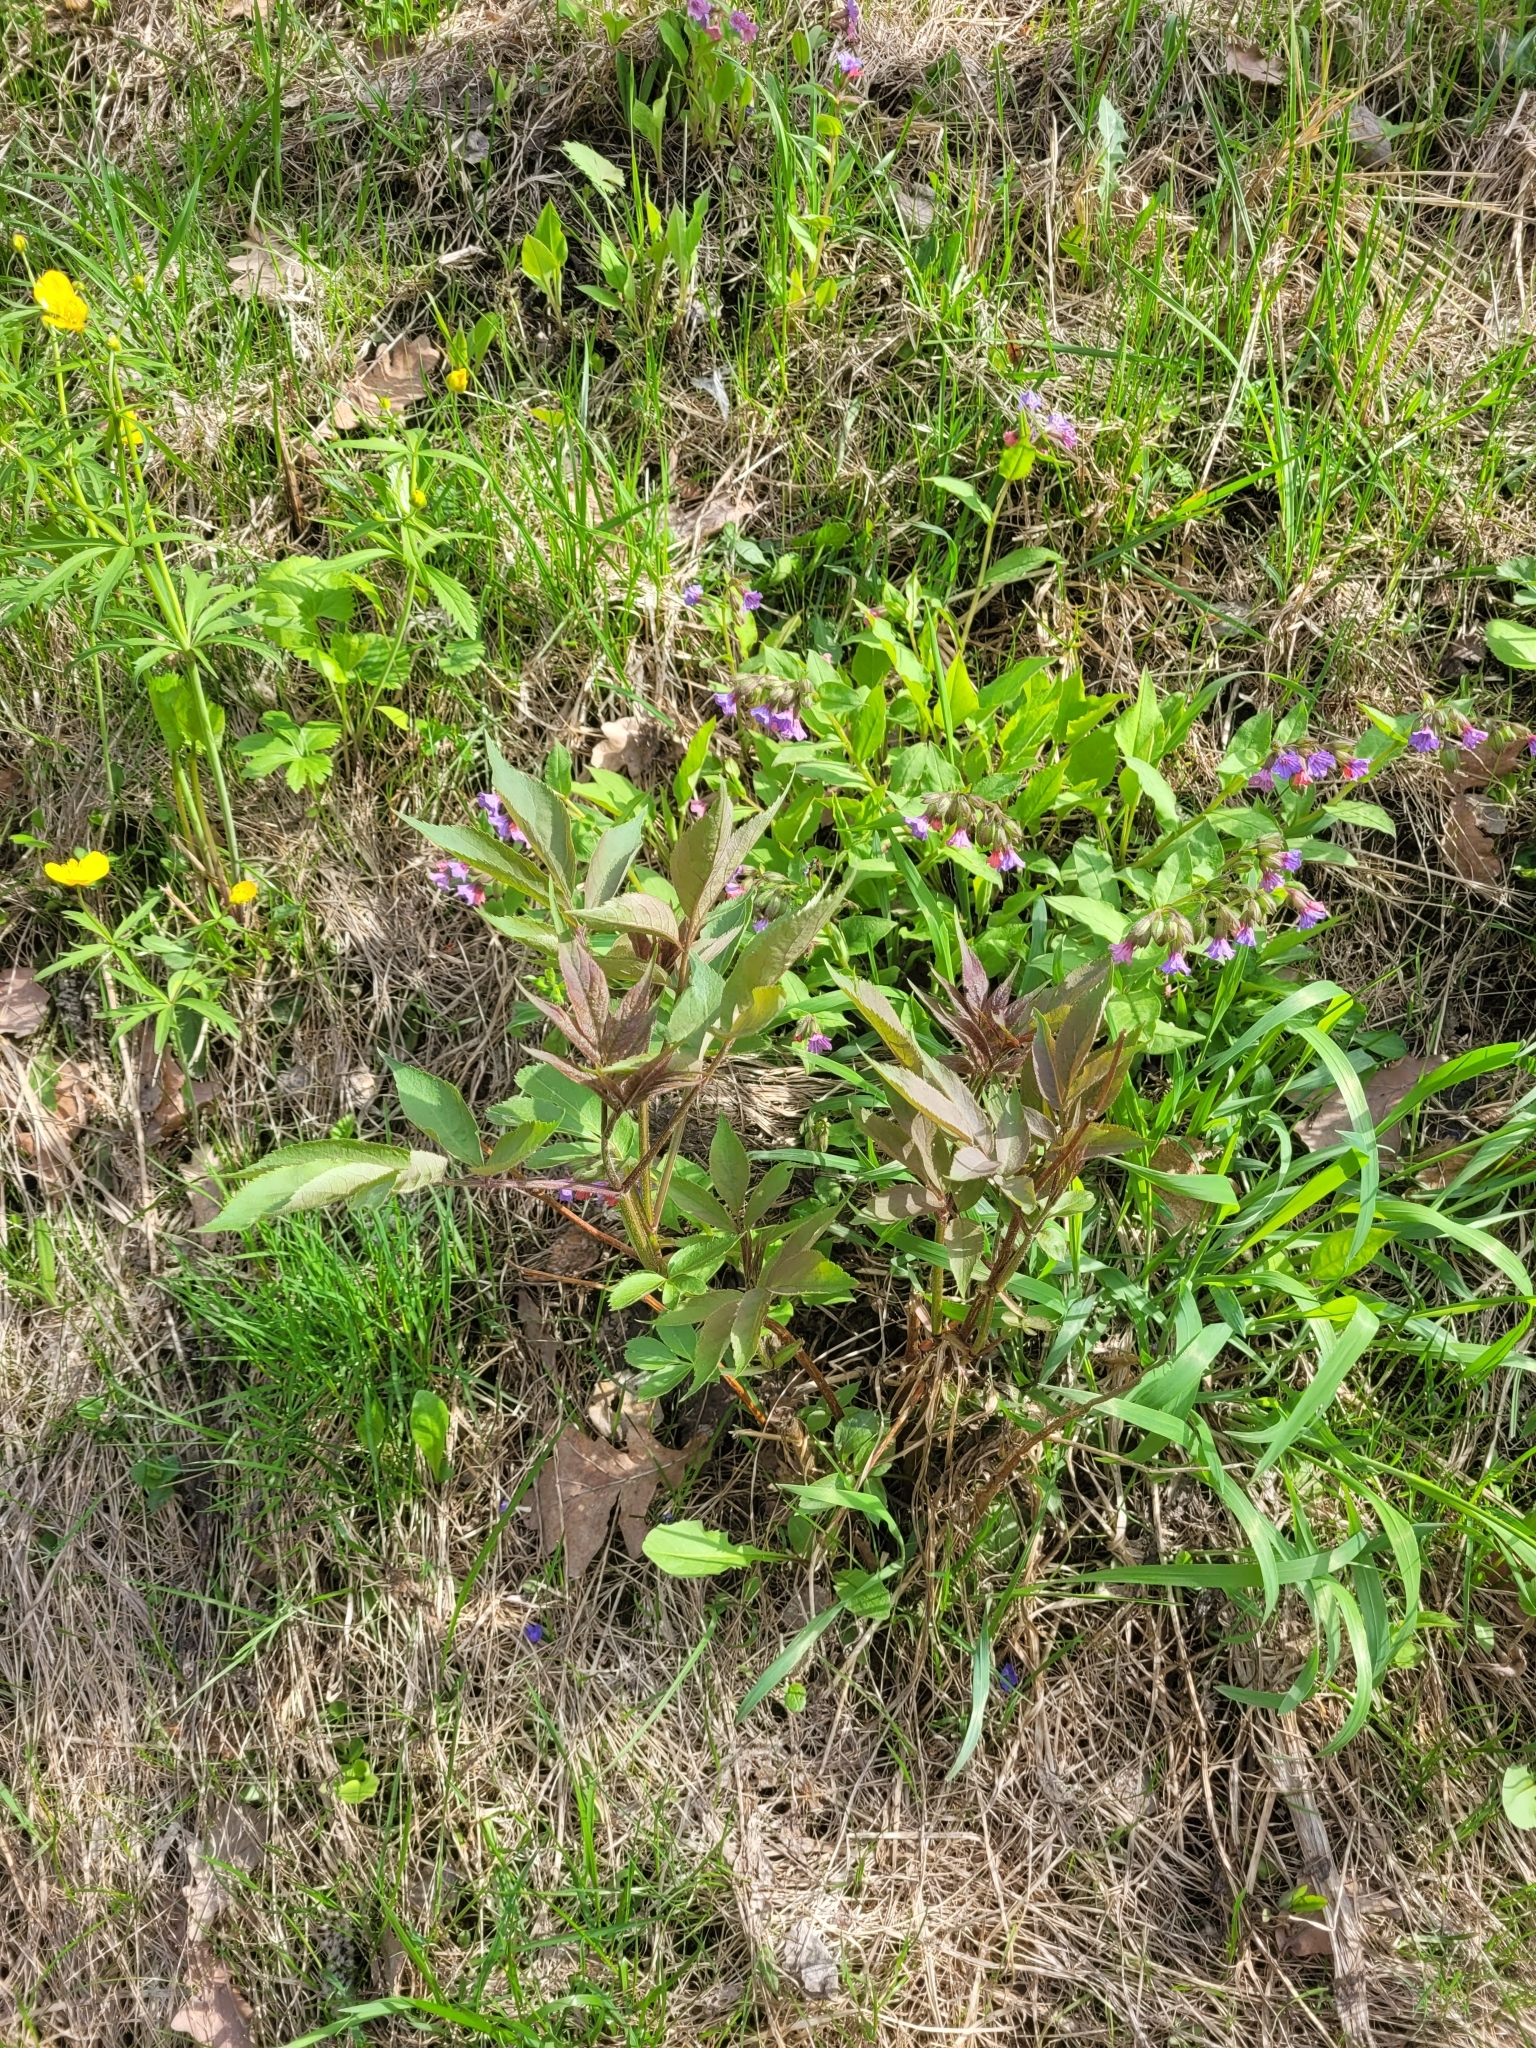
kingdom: Plantae
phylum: Tracheophyta
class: Magnoliopsida
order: Dipsacales
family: Viburnaceae
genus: Sambucus
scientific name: Sambucus racemosa
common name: Red-berried elder
